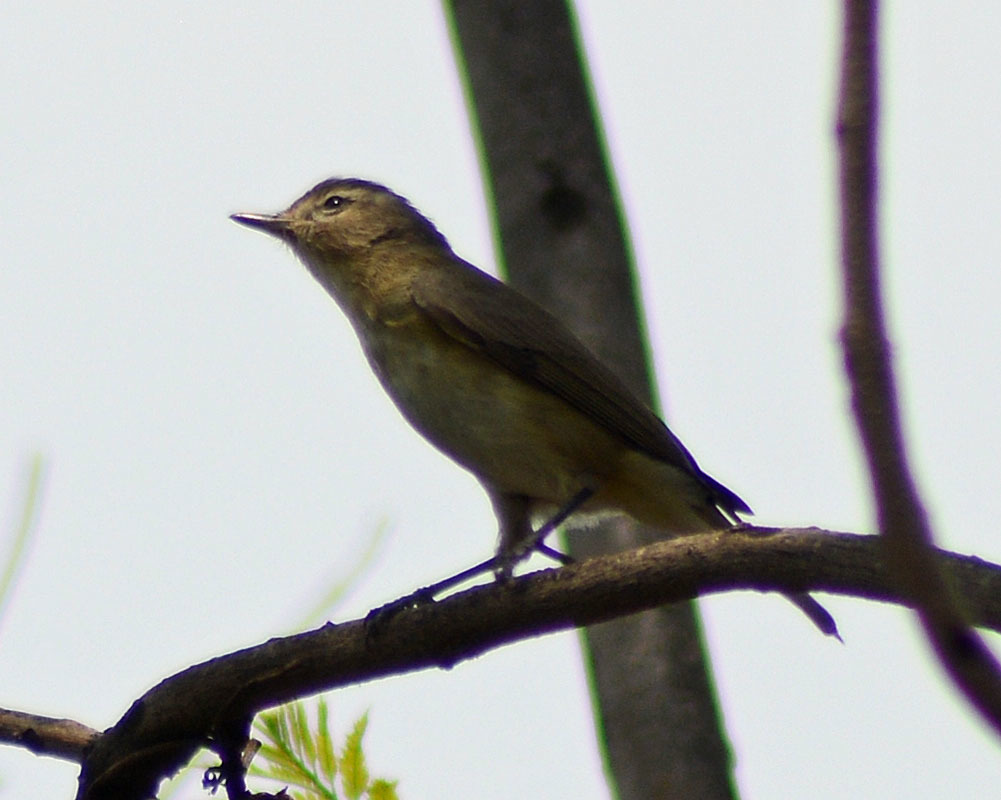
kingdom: Animalia
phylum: Chordata
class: Aves
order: Passeriformes
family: Vireonidae
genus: Vireo
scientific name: Vireo gilvus
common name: Warbling vireo
